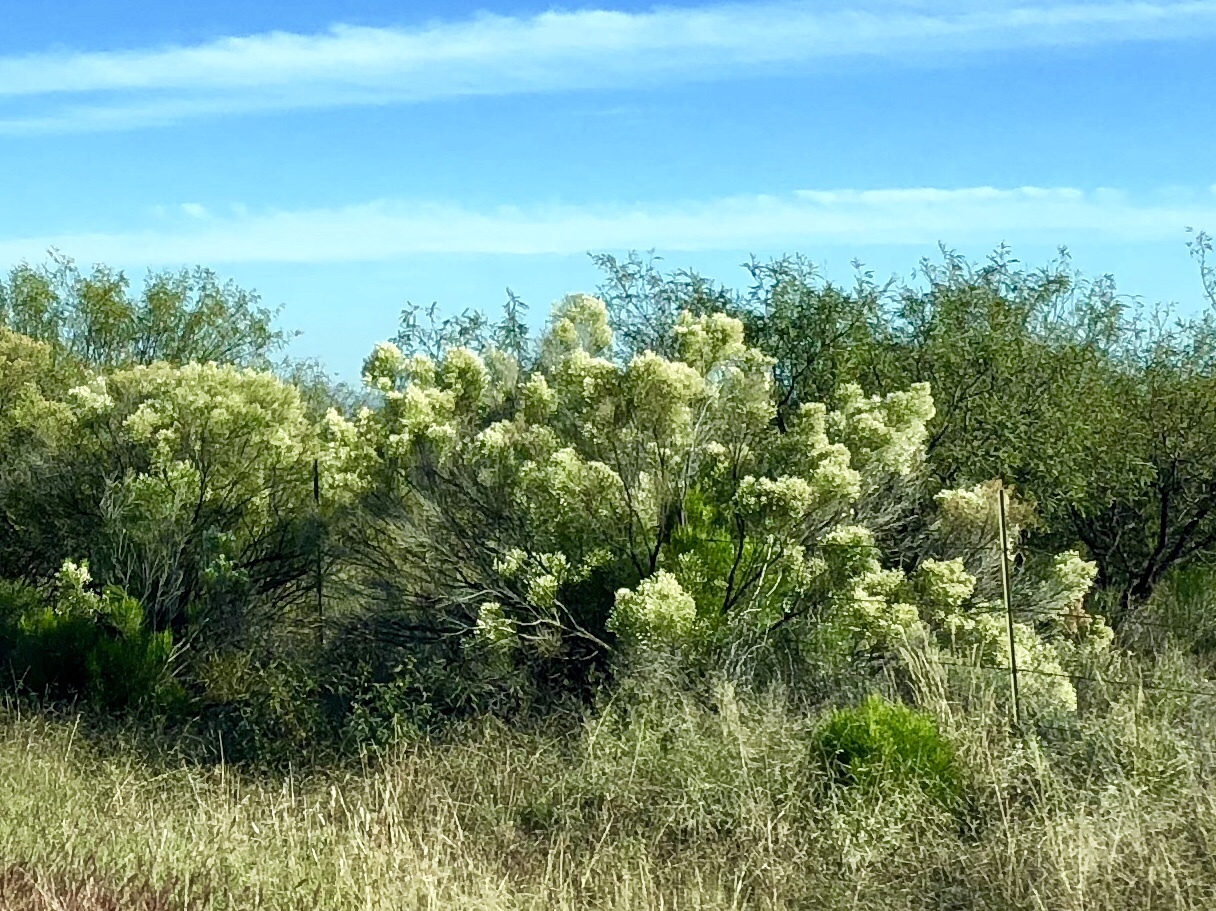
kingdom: Plantae
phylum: Tracheophyta
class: Magnoliopsida
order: Asterales
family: Asteraceae
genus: Baccharis
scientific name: Baccharis sarothroides
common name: Desert-broom
